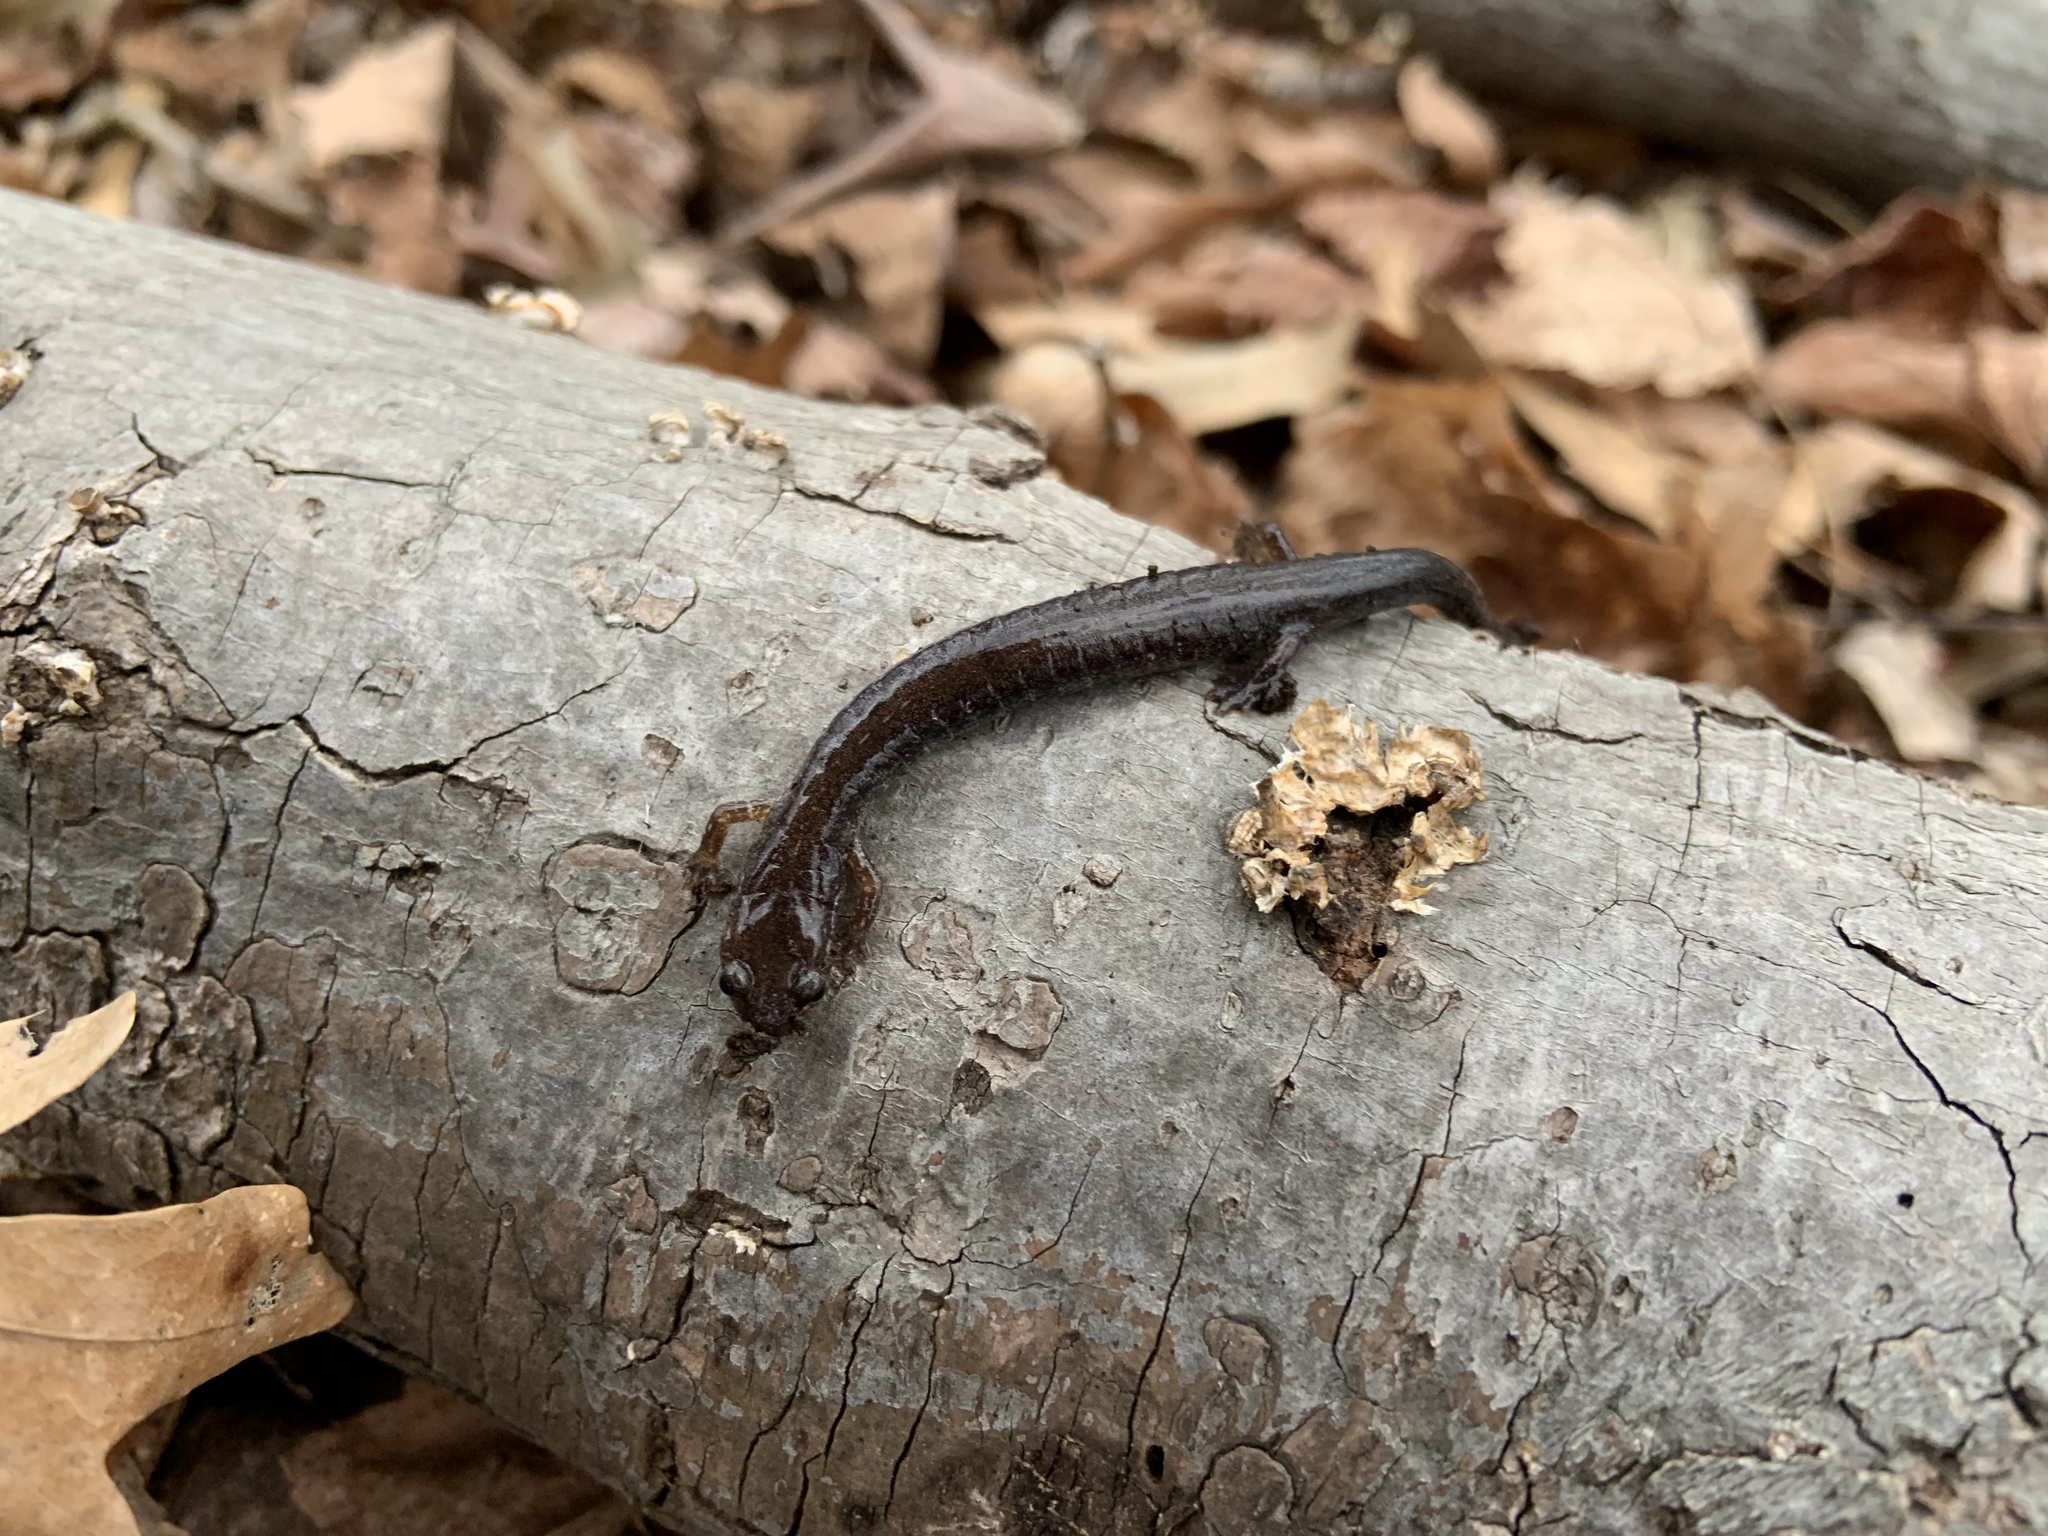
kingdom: Animalia
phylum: Chordata
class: Amphibia
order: Caudata
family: Plethodontidae
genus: Plethodon
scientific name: Plethodon cinereus
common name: Redback salamander
